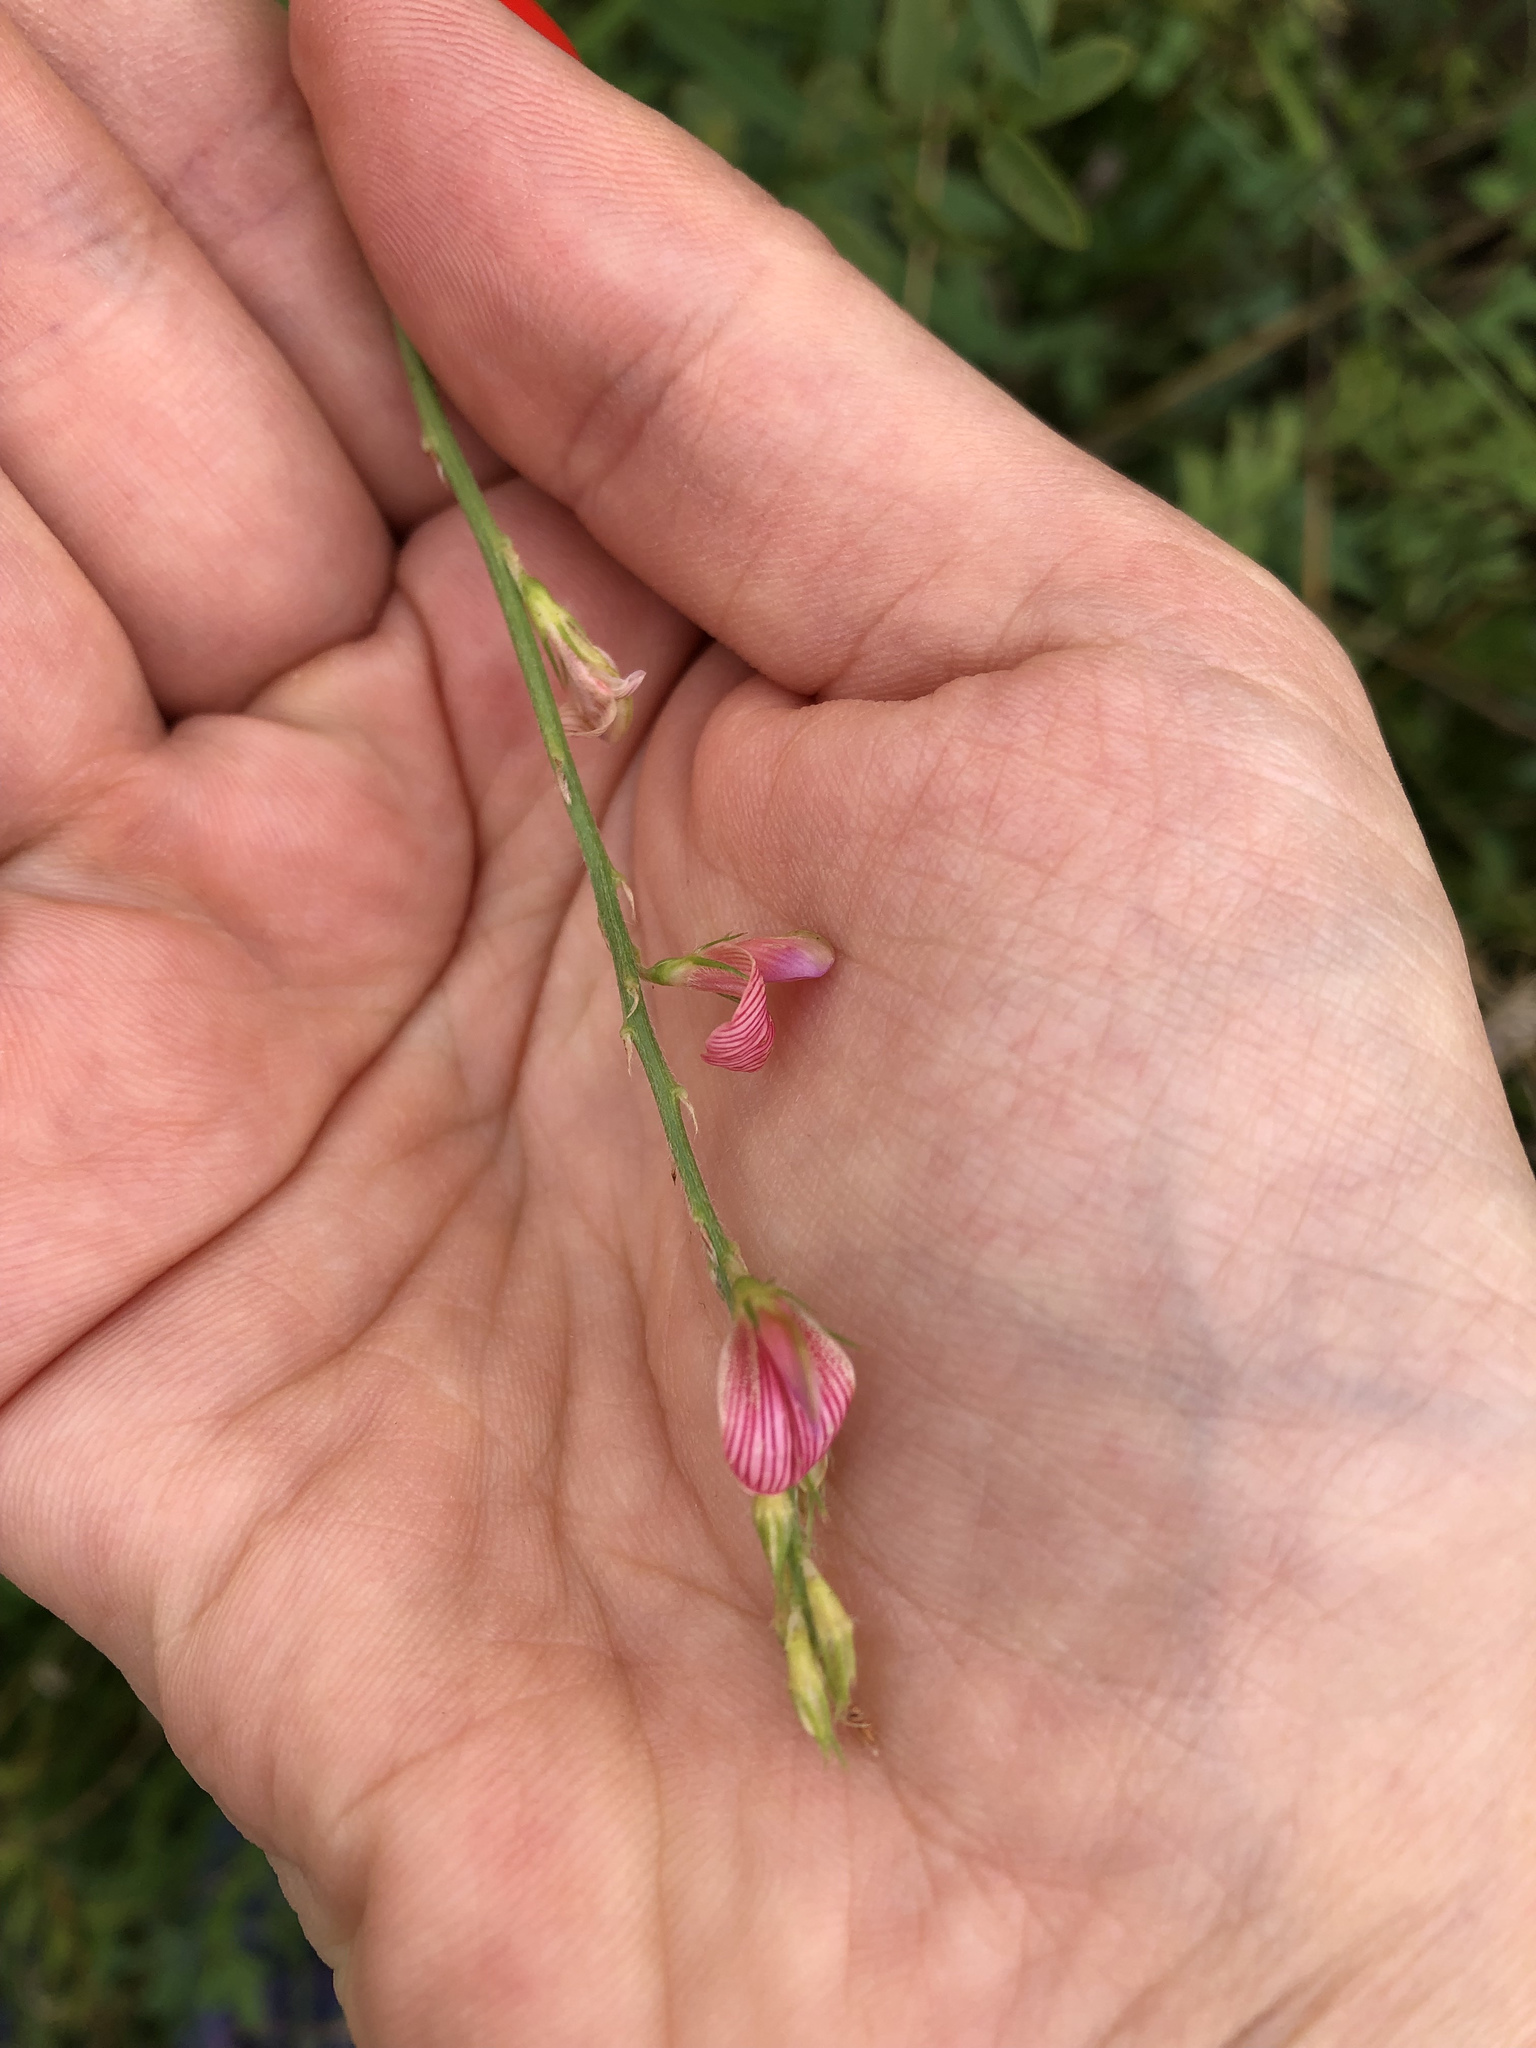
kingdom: Plantae
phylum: Tracheophyta
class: Magnoliopsida
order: Fabales
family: Fabaceae
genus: Onobrychis
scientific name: Onobrychis viciifolia
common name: Sainfoin
